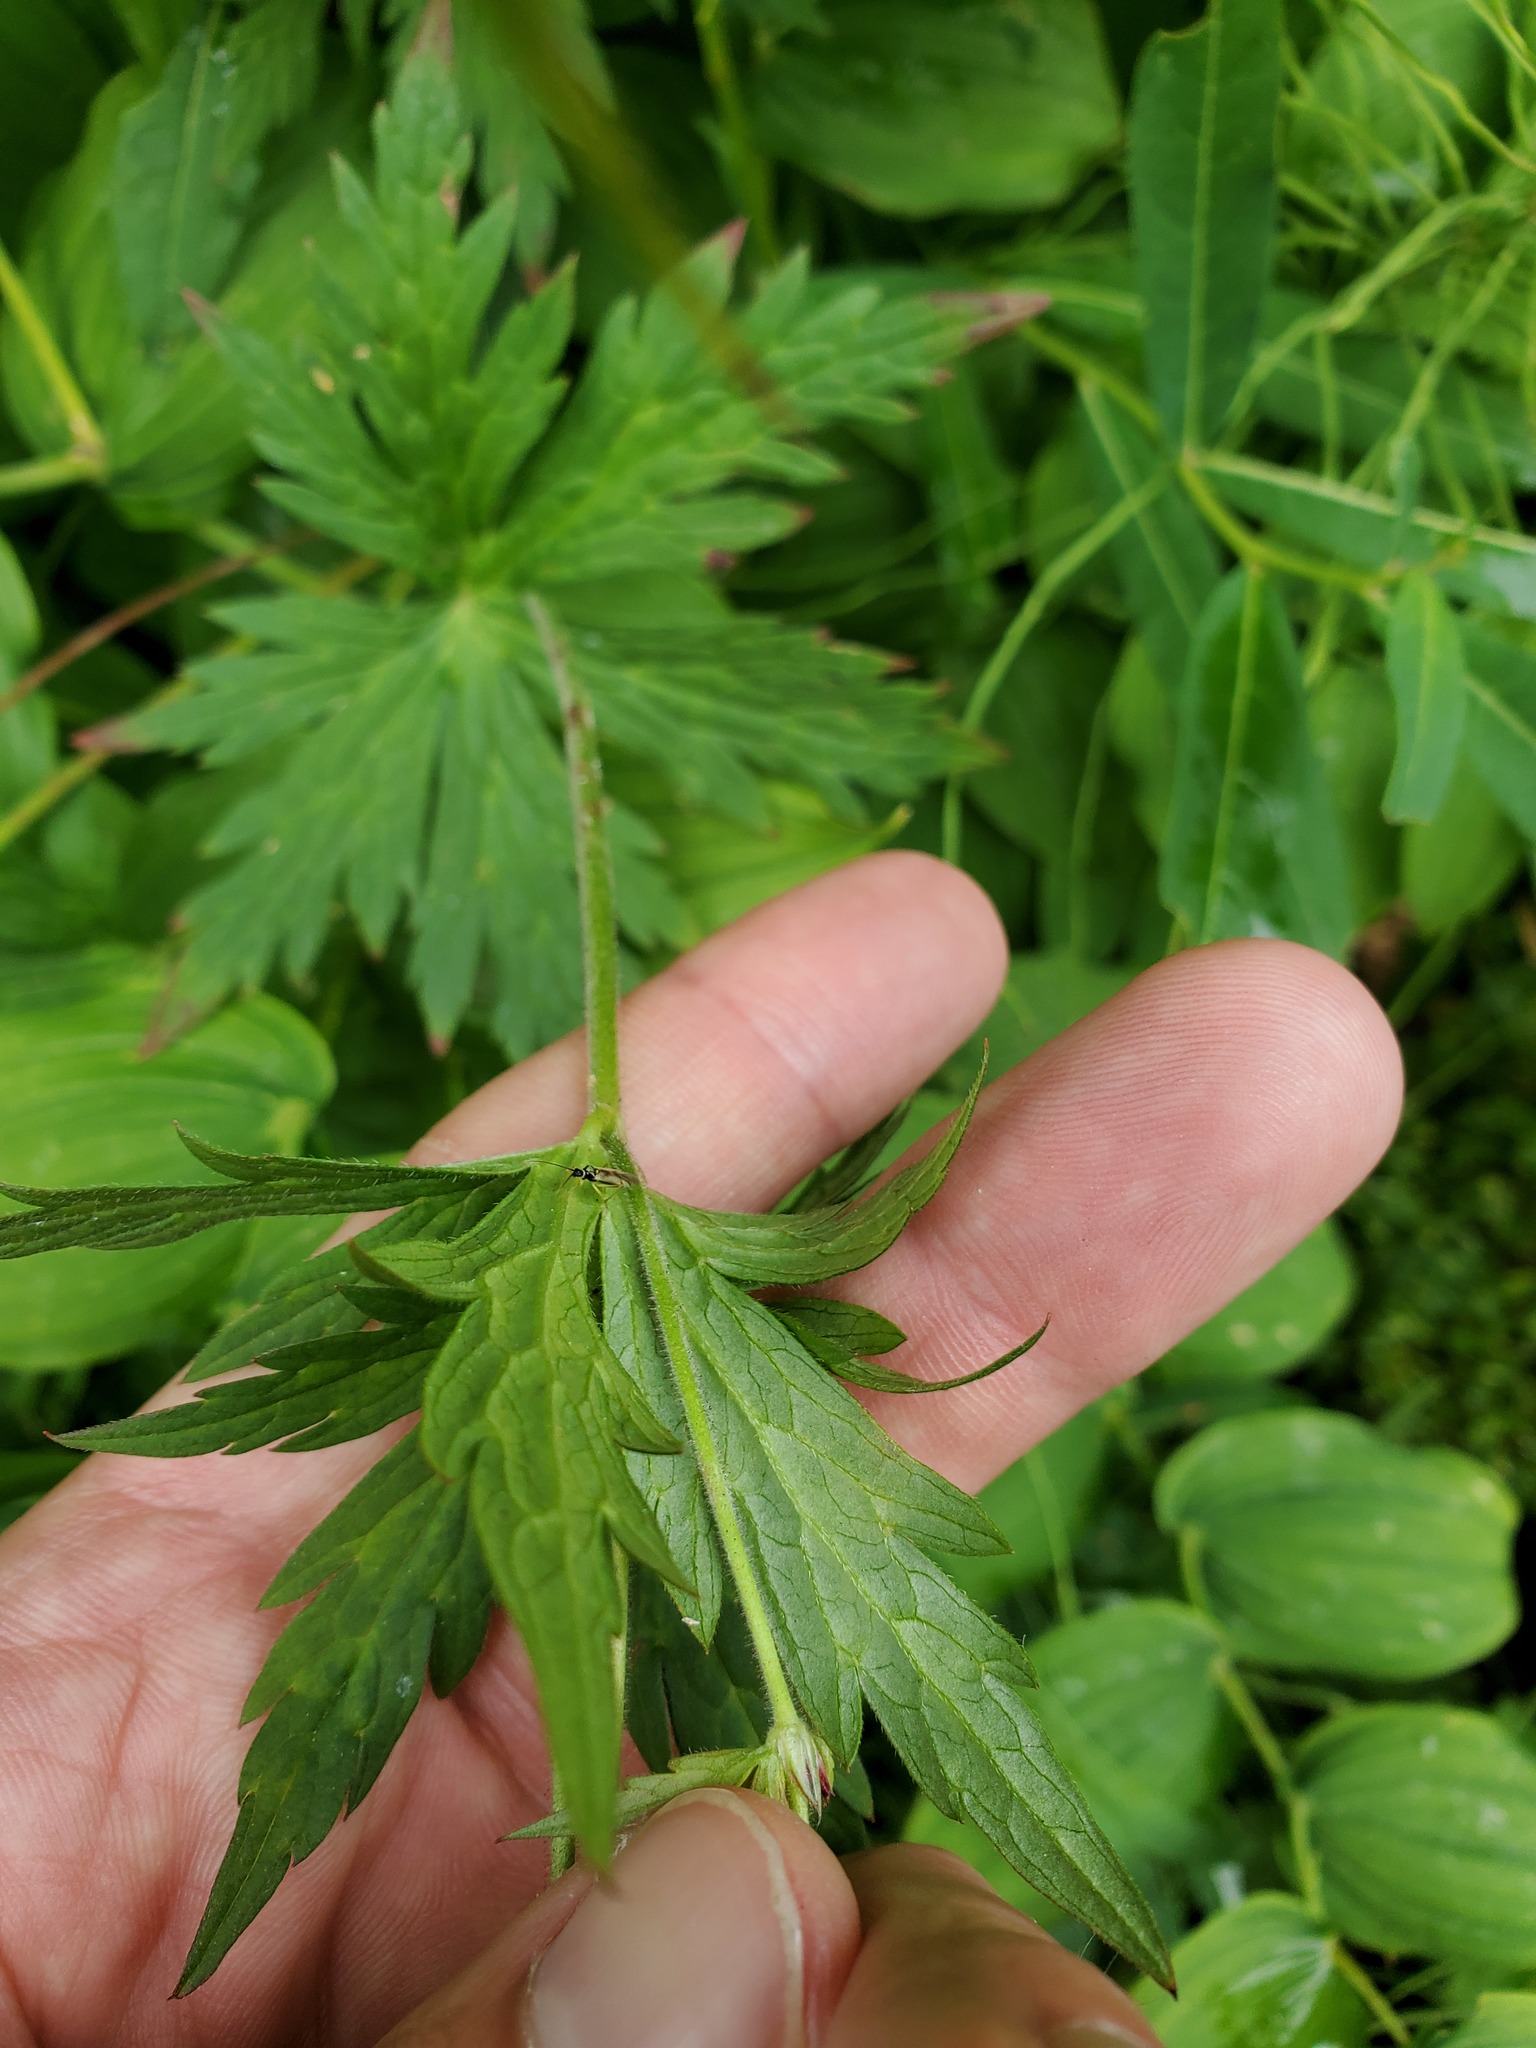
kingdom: Plantae
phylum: Tracheophyta
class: Magnoliopsida
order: Geraniales
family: Geraniaceae
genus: Geranium
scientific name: Geranium richardsonii
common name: Richardson's crane's-bill
